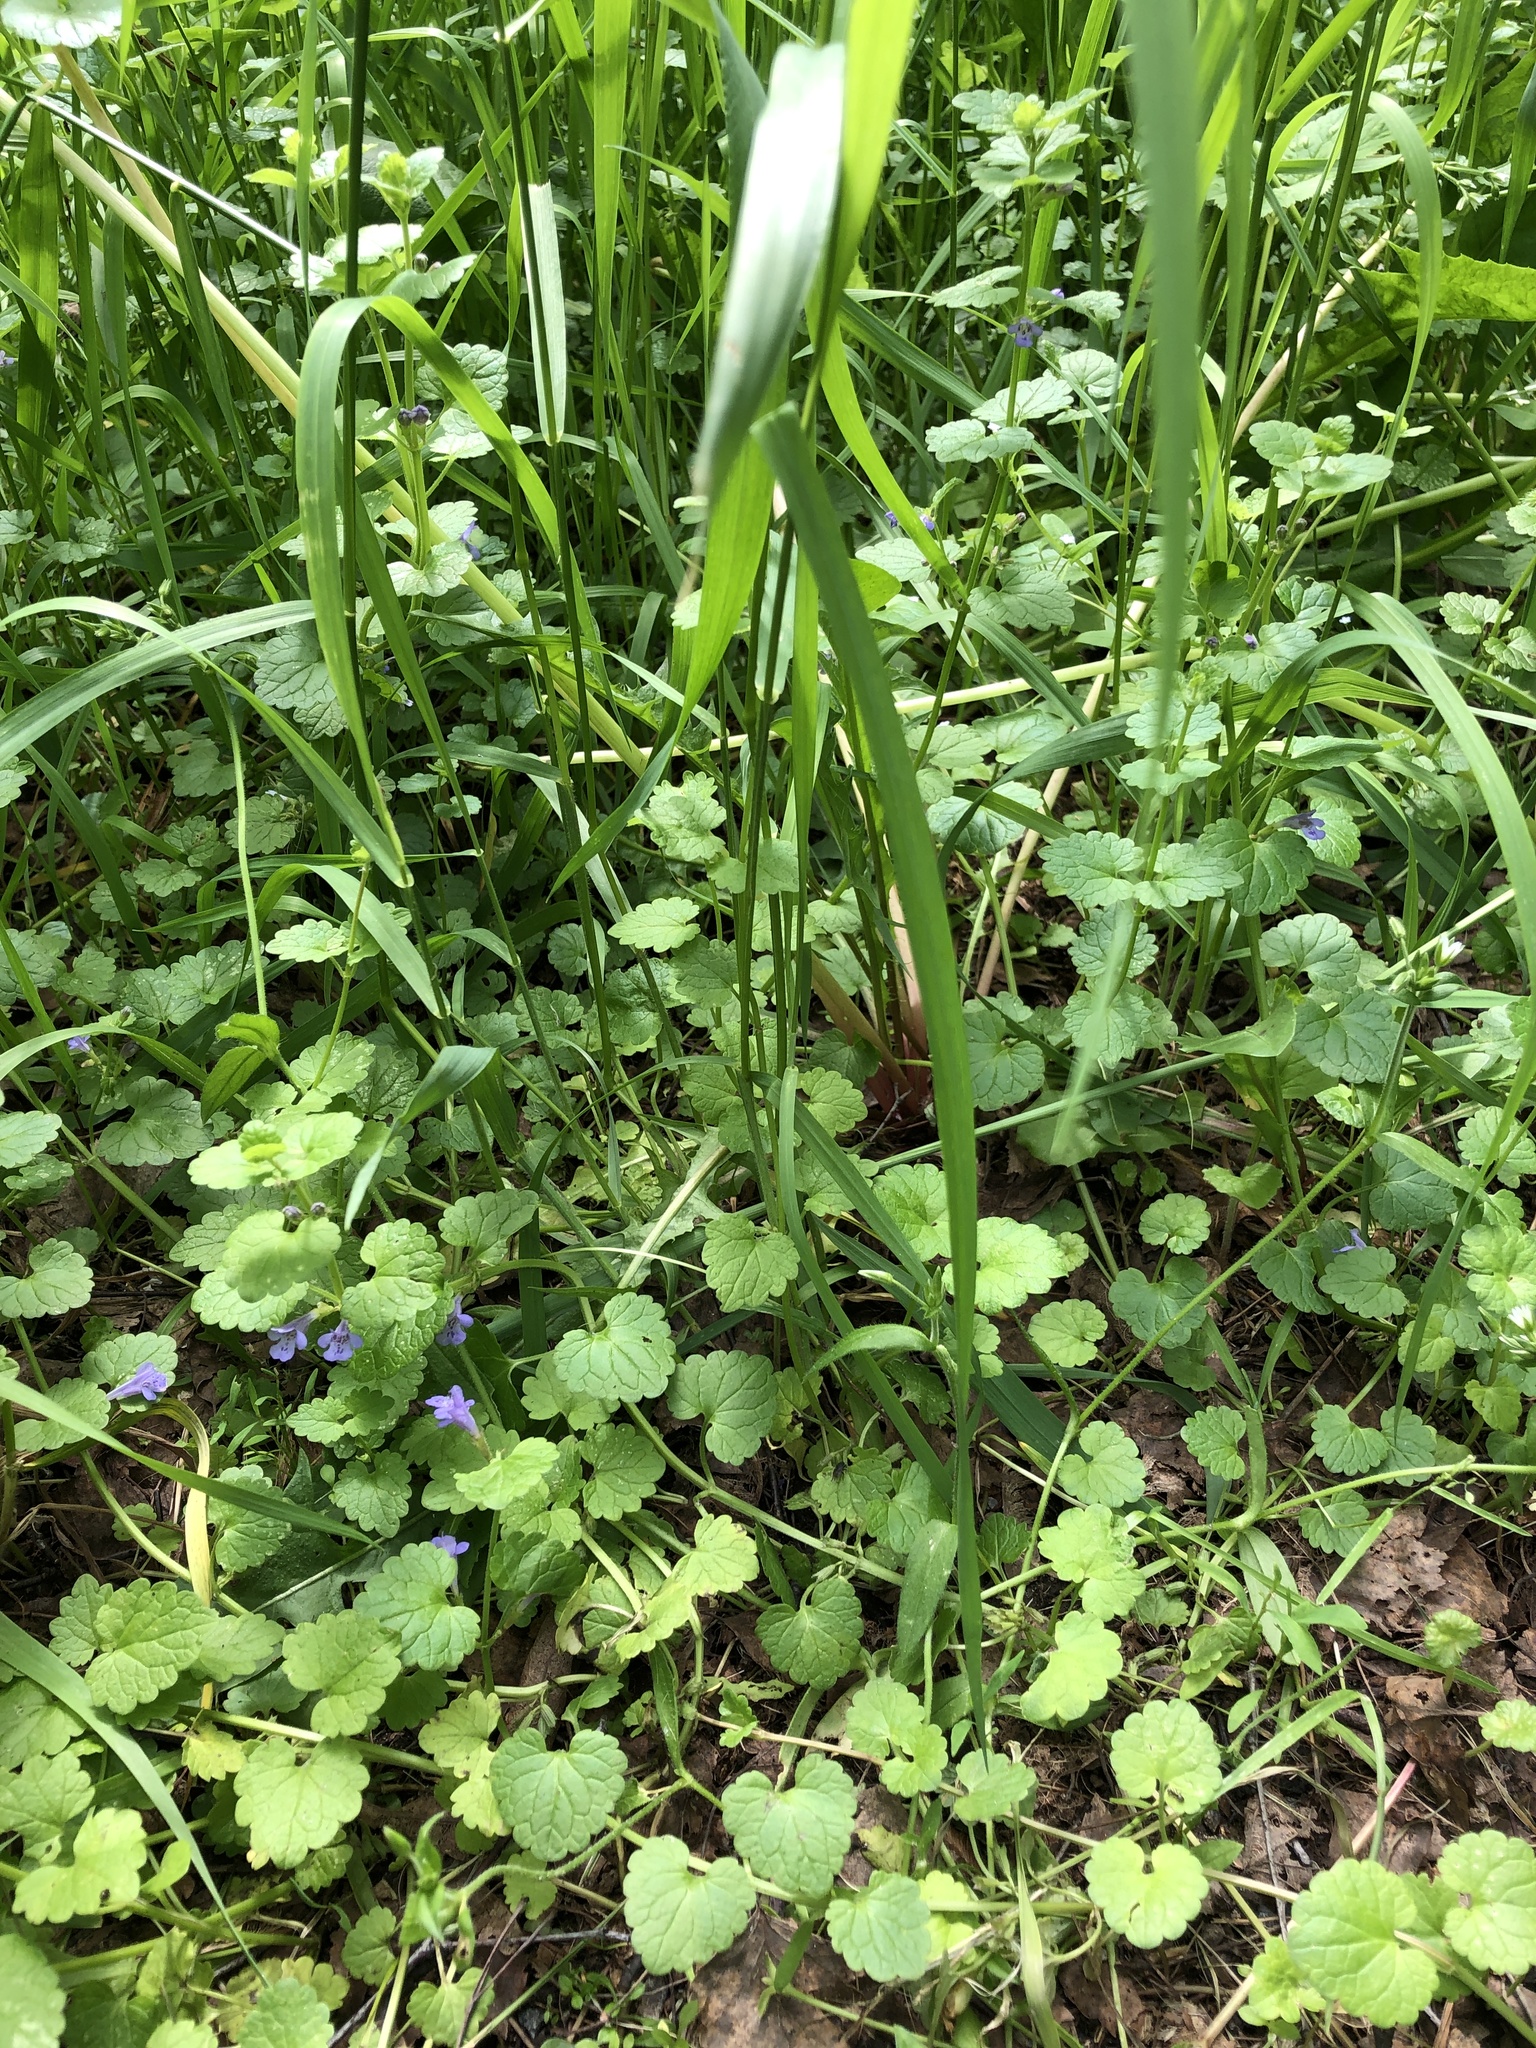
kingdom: Plantae
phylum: Tracheophyta
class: Magnoliopsida
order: Lamiales
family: Lamiaceae
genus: Glechoma
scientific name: Glechoma hederacea
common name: Ground ivy
